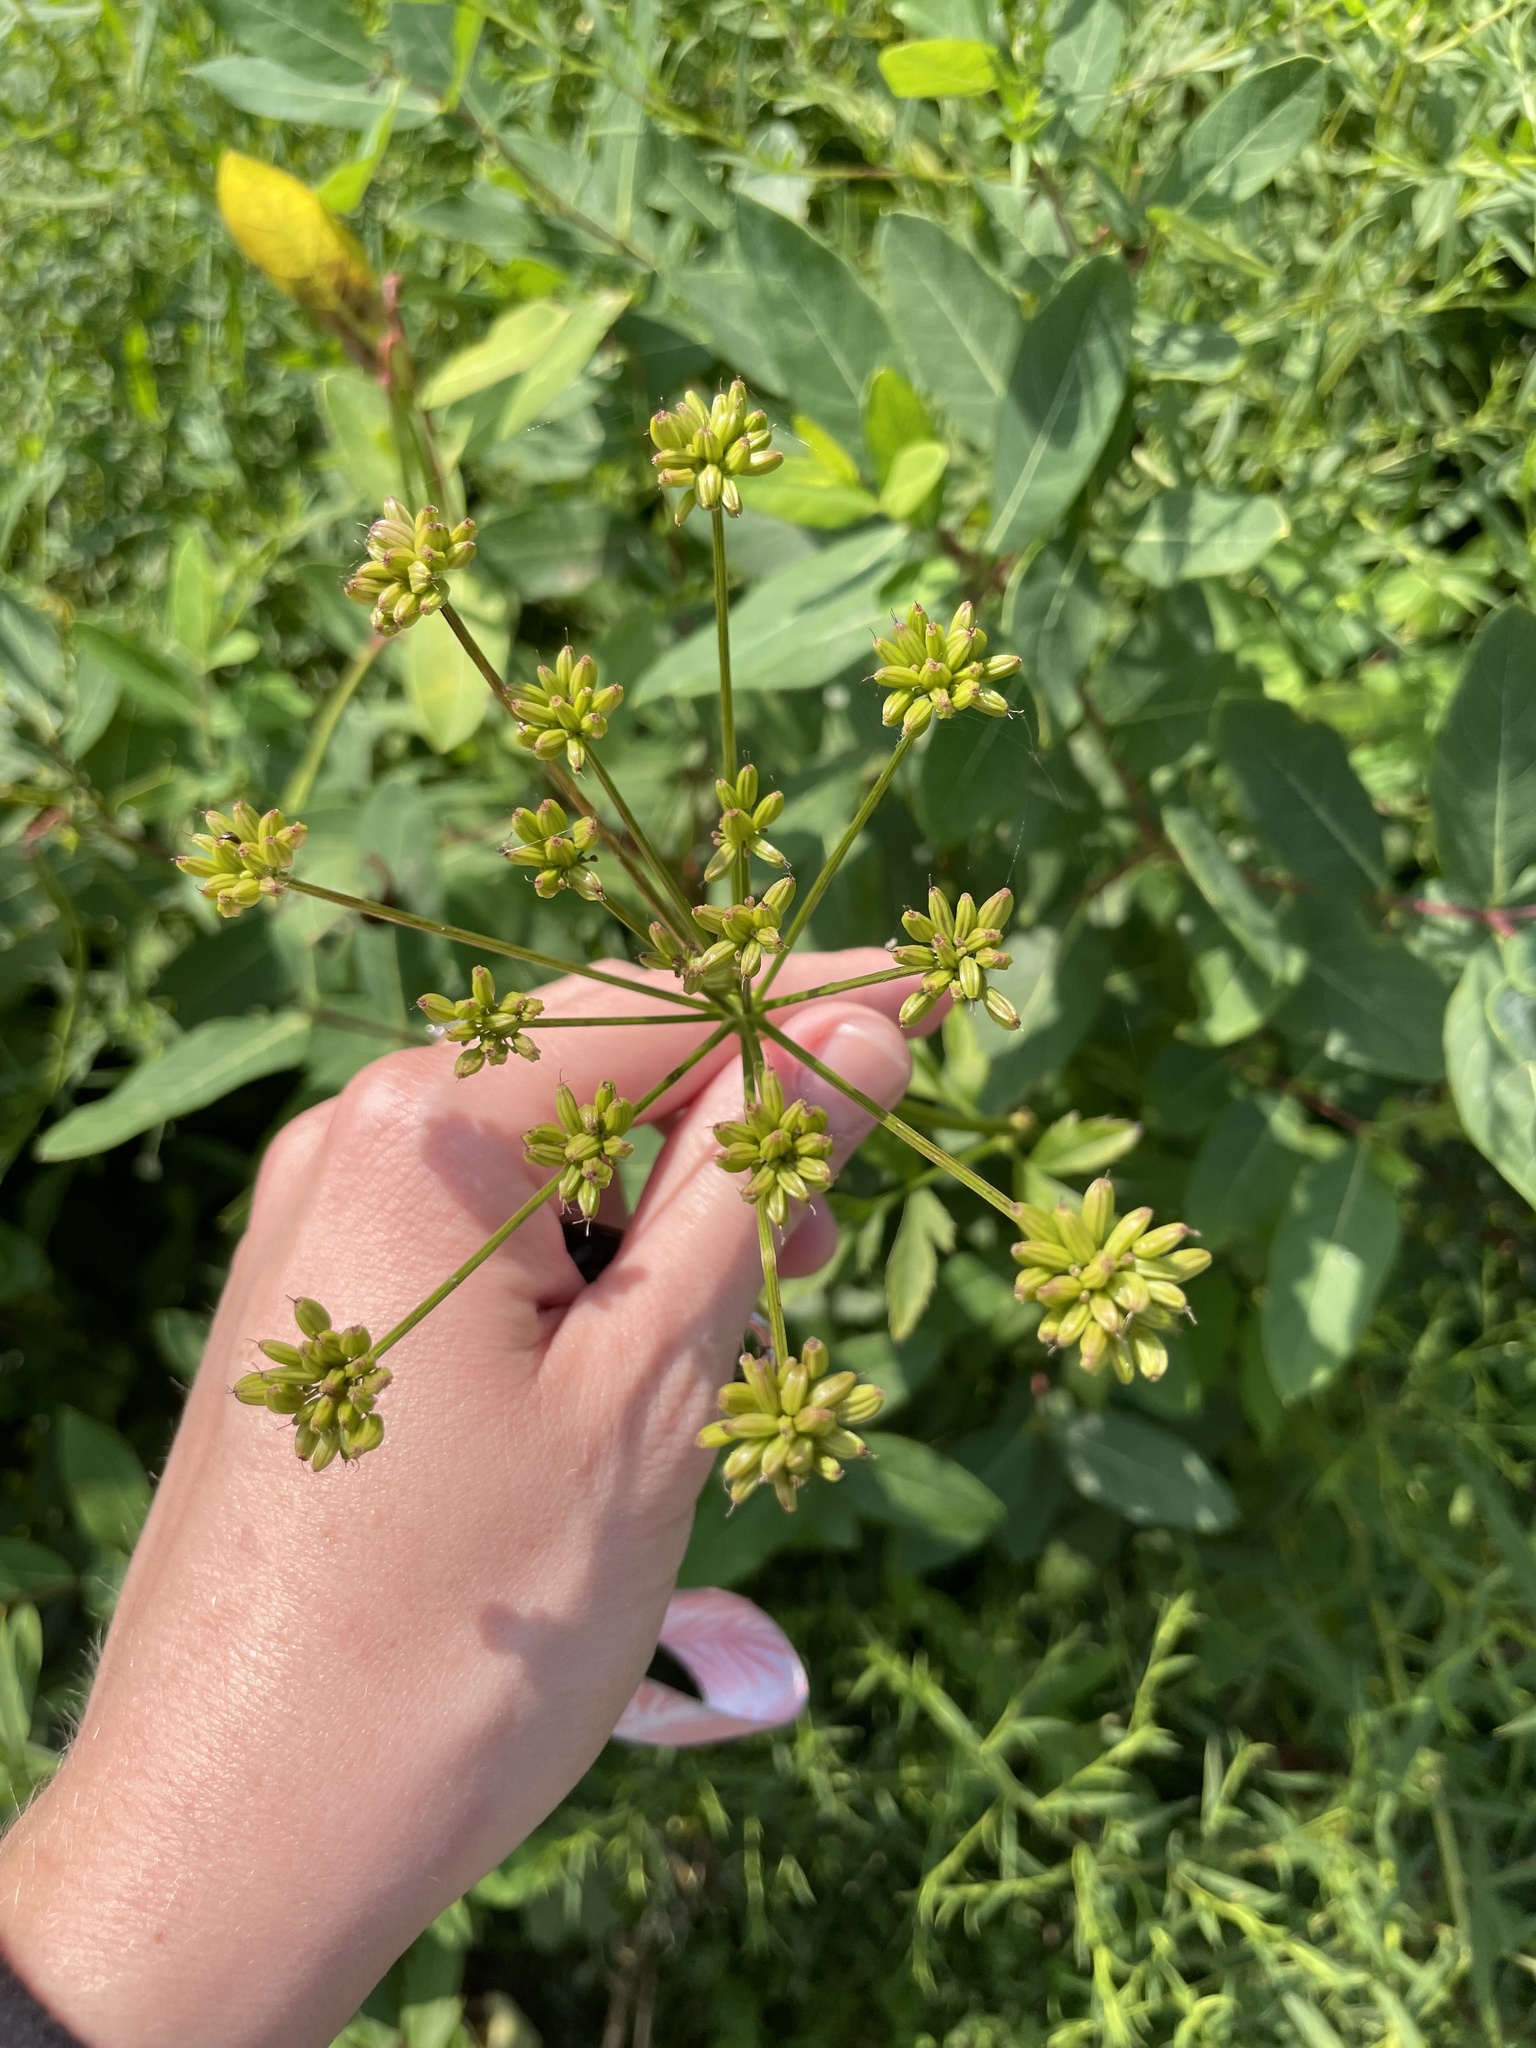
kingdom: Plantae
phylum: Tracheophyta
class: Magnoliopsida
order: Apiales
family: Apiaceae
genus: Zizia
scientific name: Zizia aurea
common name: Golden alexanders
